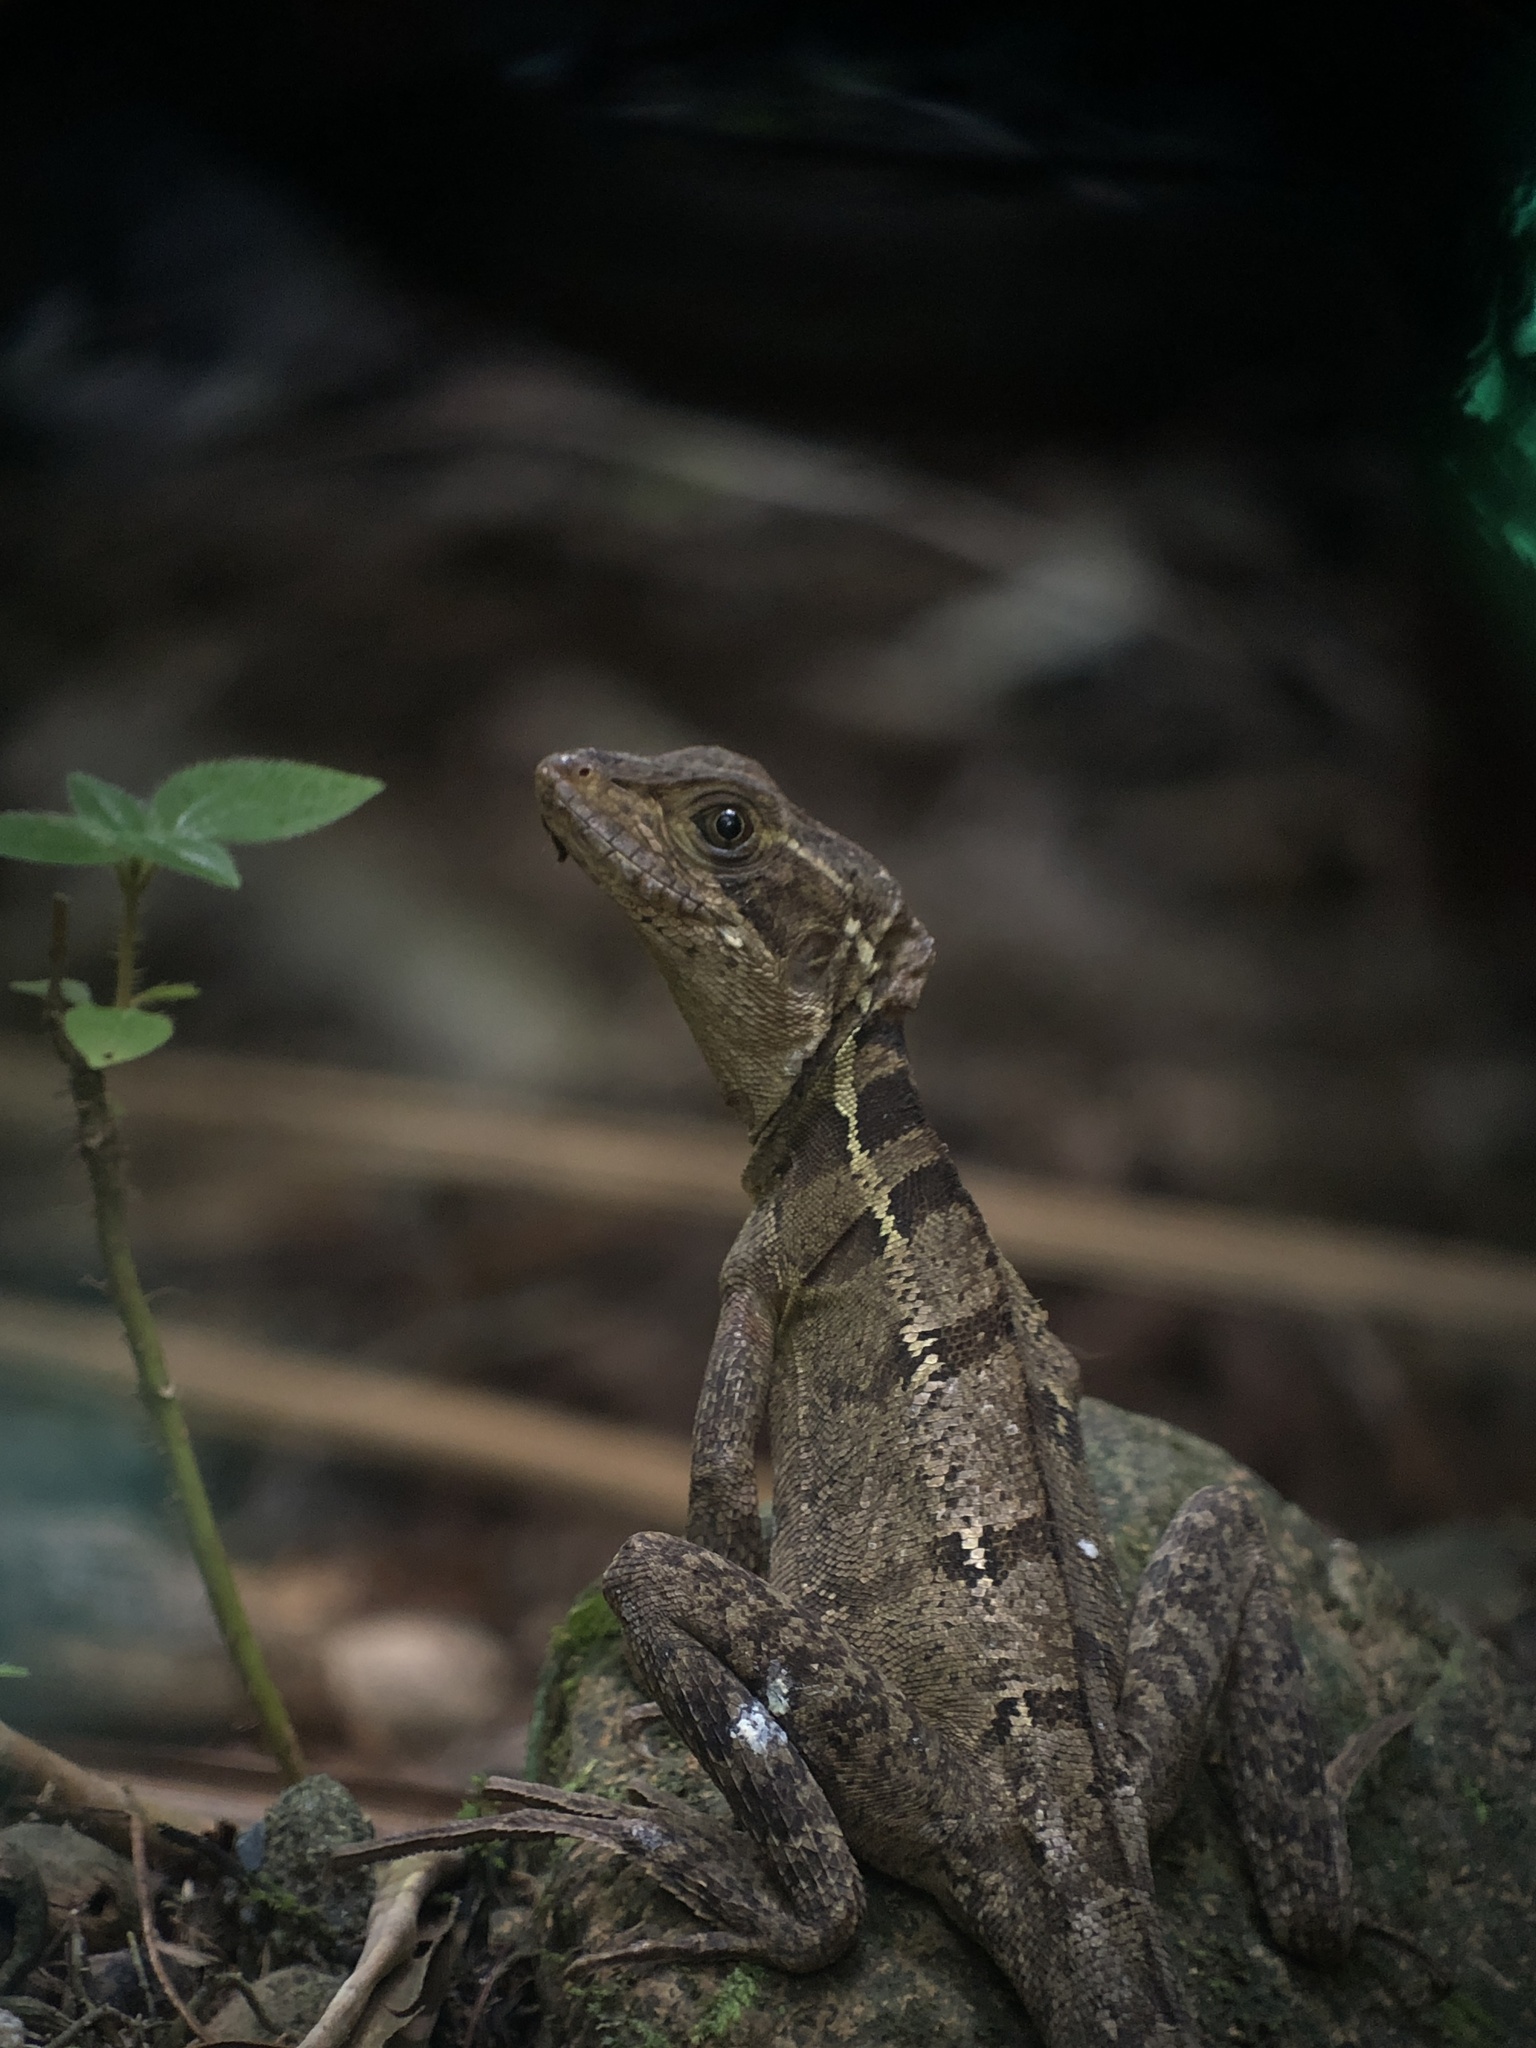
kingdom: Animalia
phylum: Chordata
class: Squamata
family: Corytophanidae
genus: Basiliscus
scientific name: Basiliscus vittatus
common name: Brown basilisk
